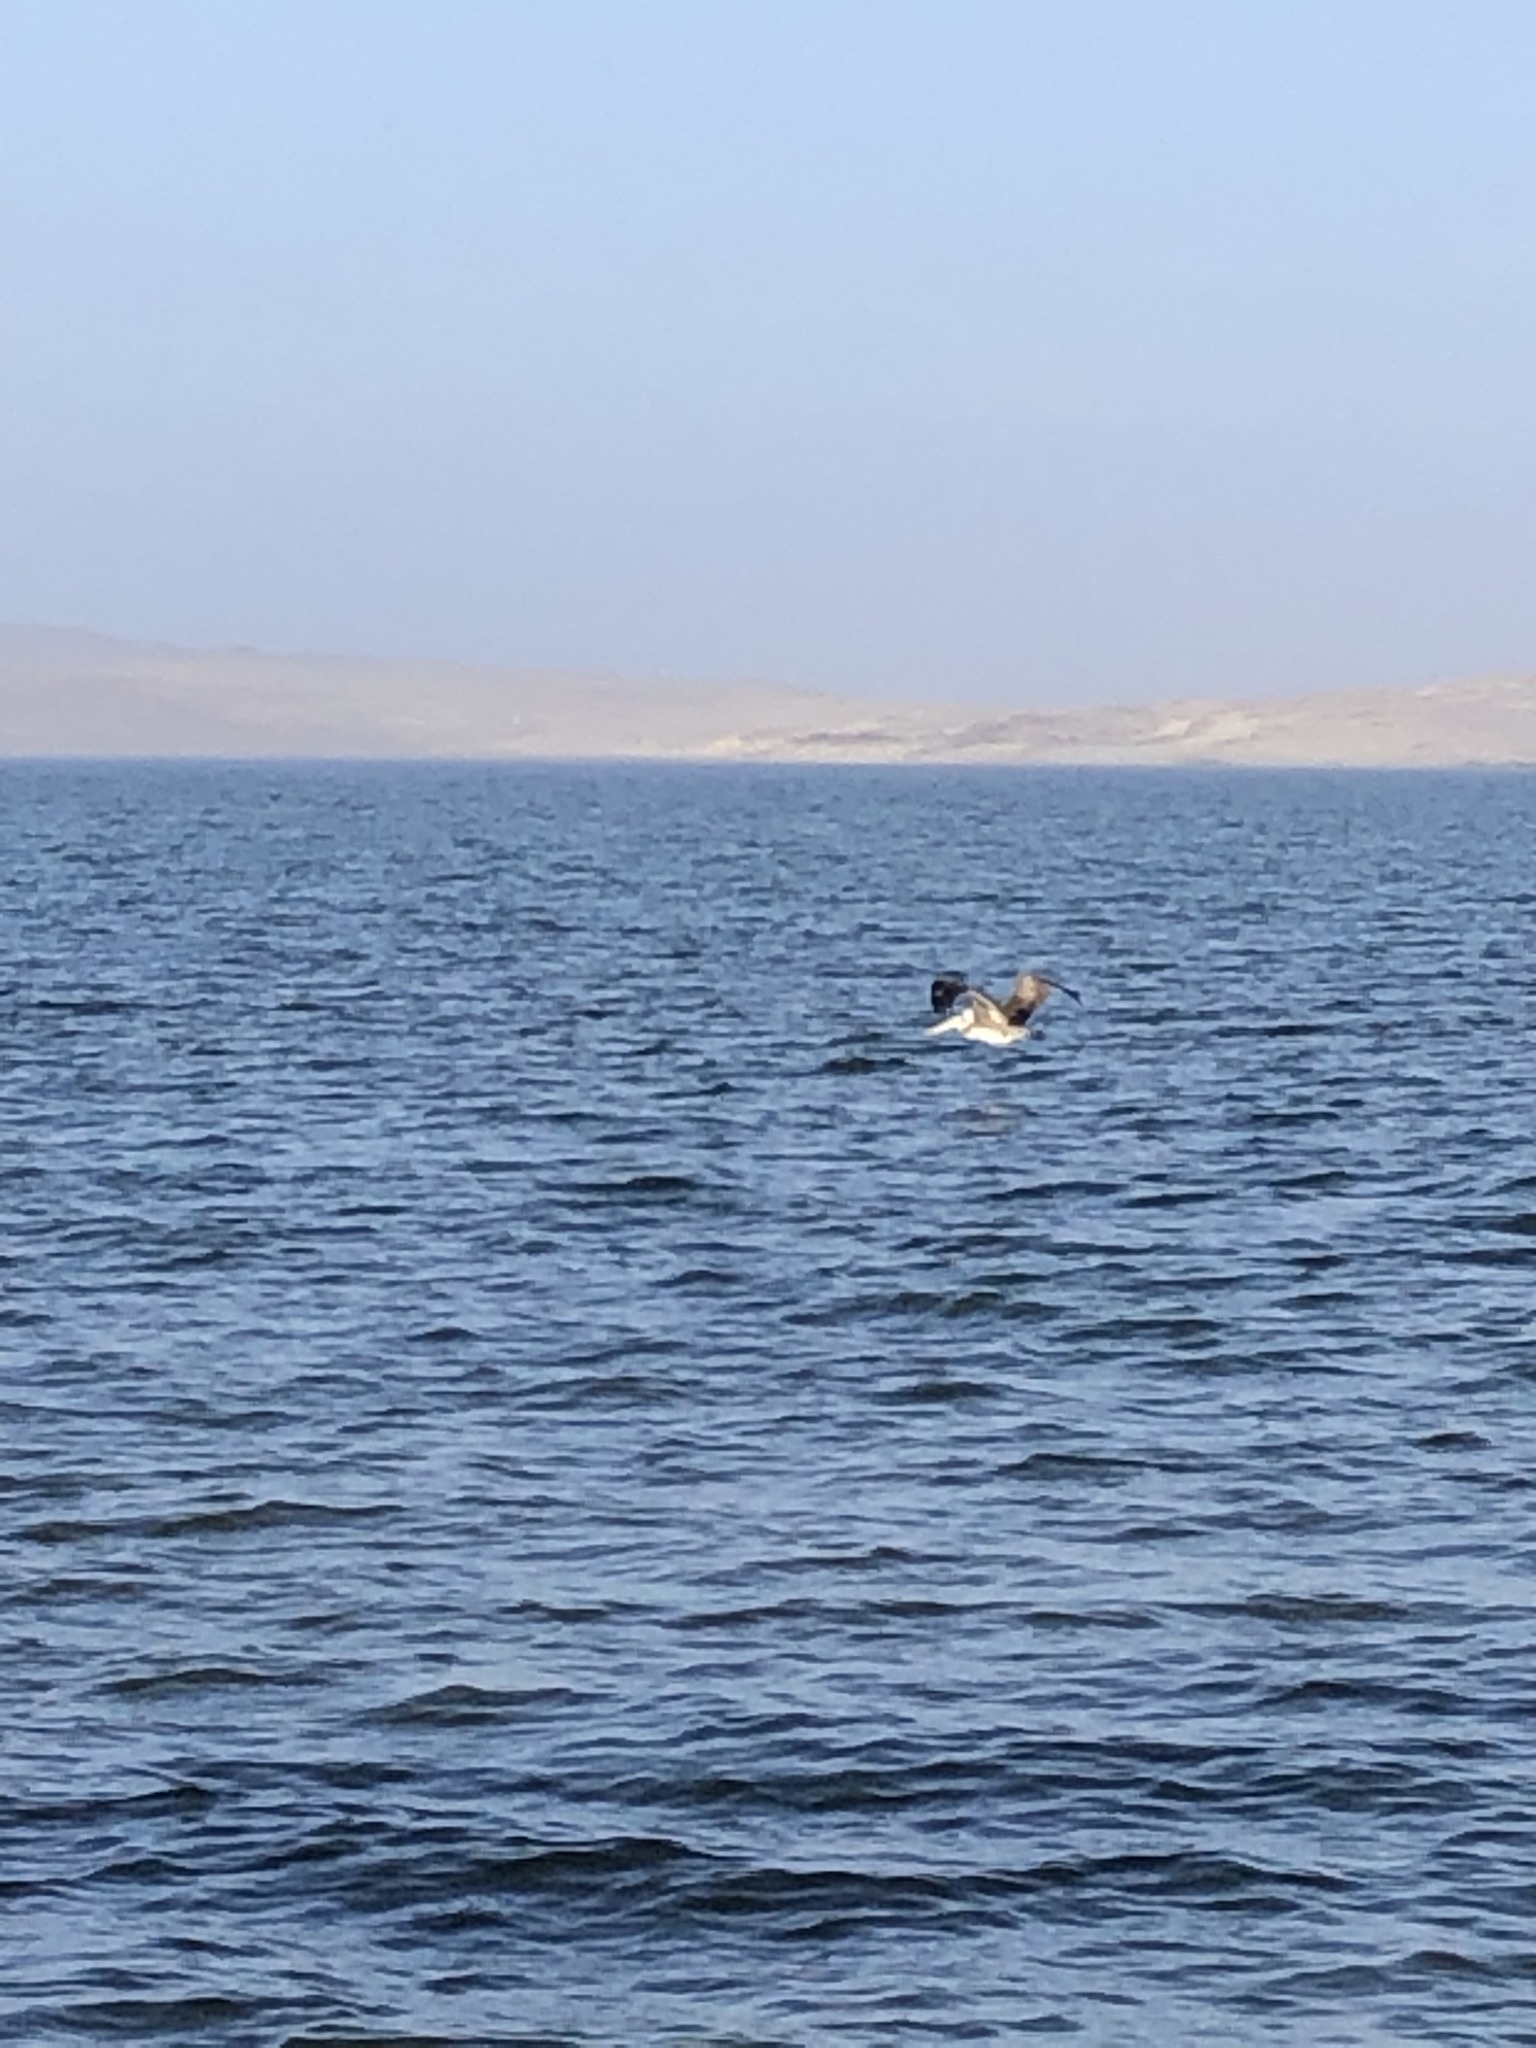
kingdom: Animalia
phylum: Chordata
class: Aves
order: Pelecaniformes
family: Pelecanidae
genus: Pelecanus
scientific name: Pelecanus thagus
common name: Peruvian pelican
